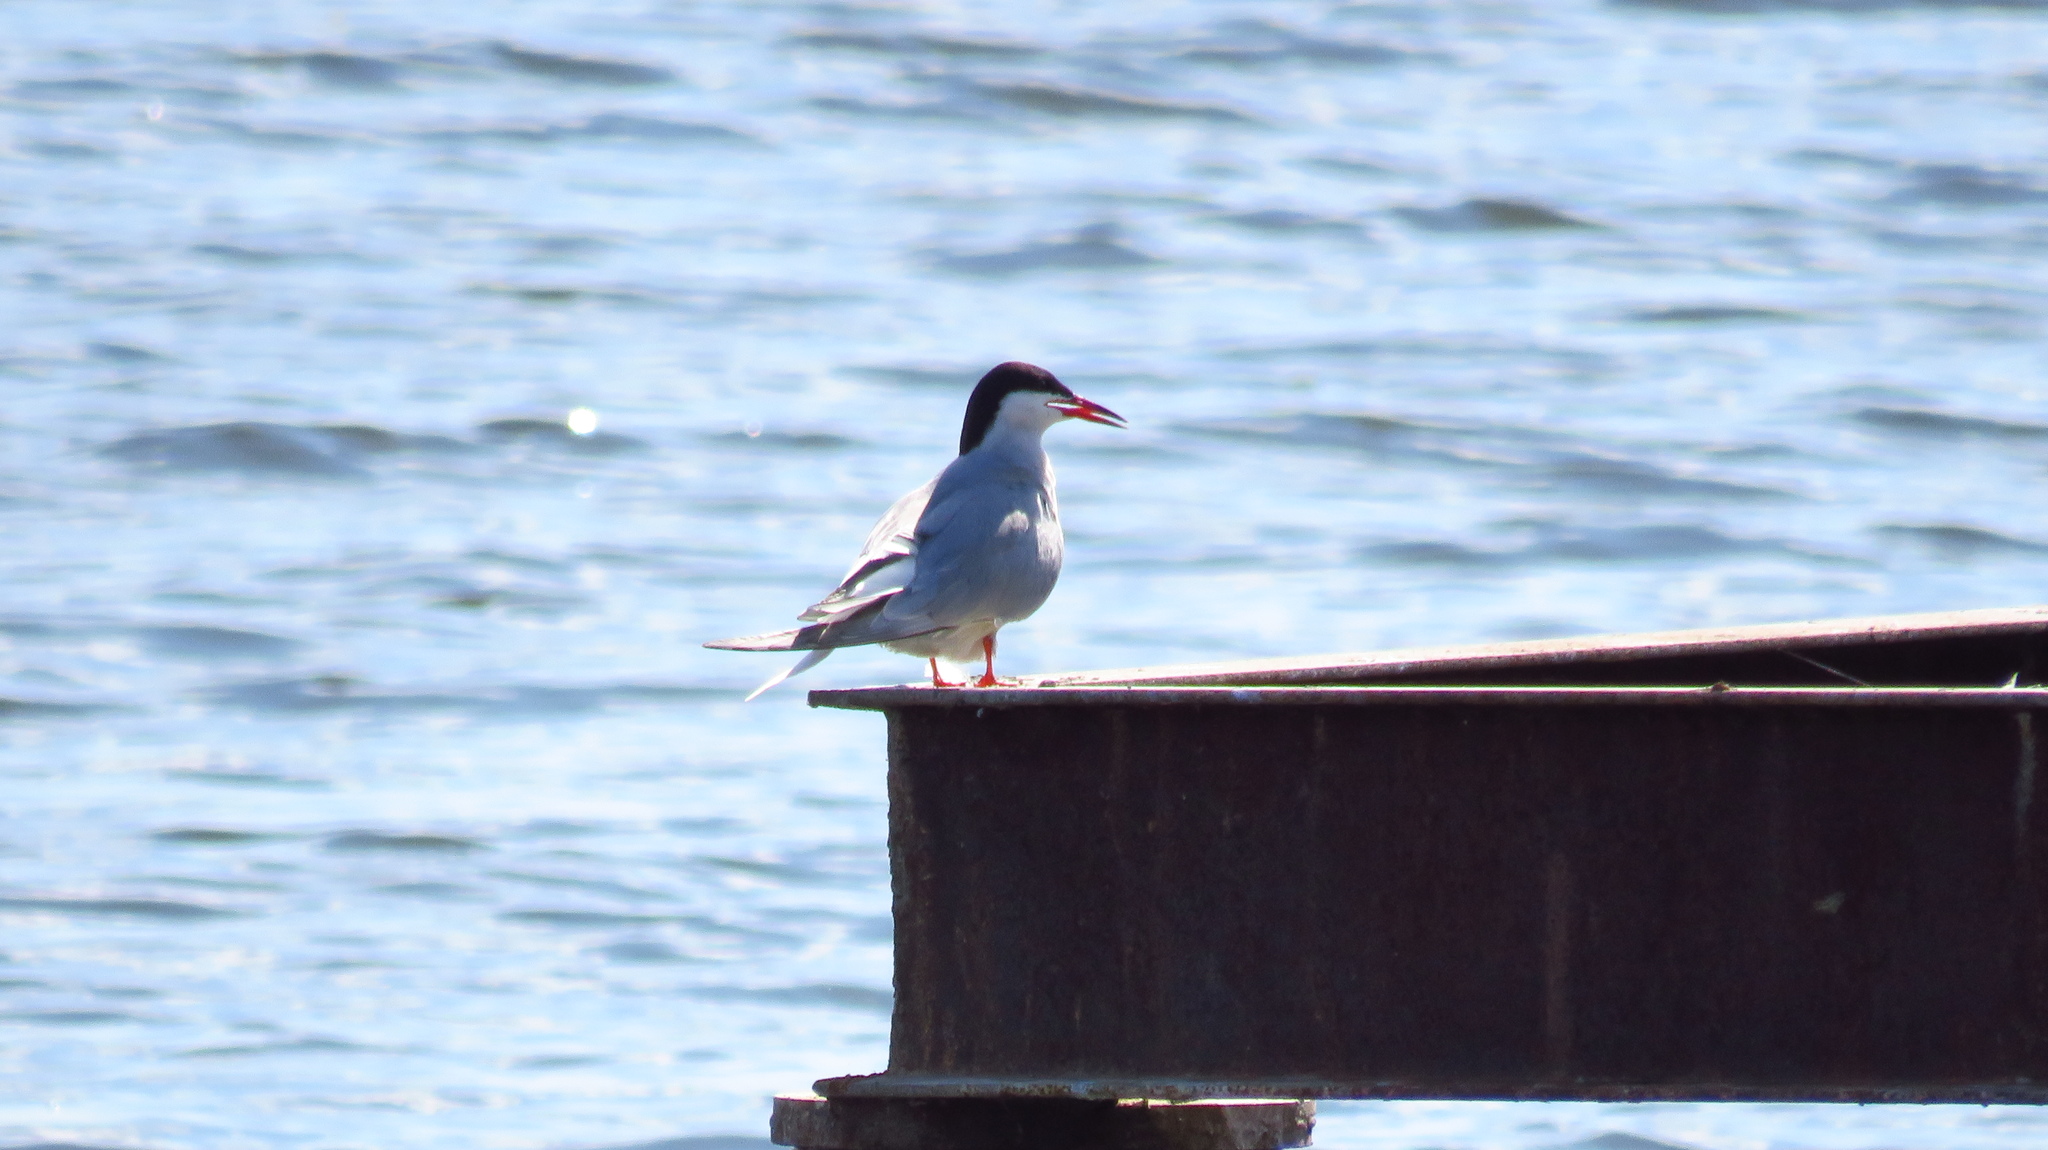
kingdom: Animalia
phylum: Chordata
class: Aves
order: Charadriiformes
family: Laridae
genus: Sterna
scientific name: Sterna hirundo
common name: Common tern
